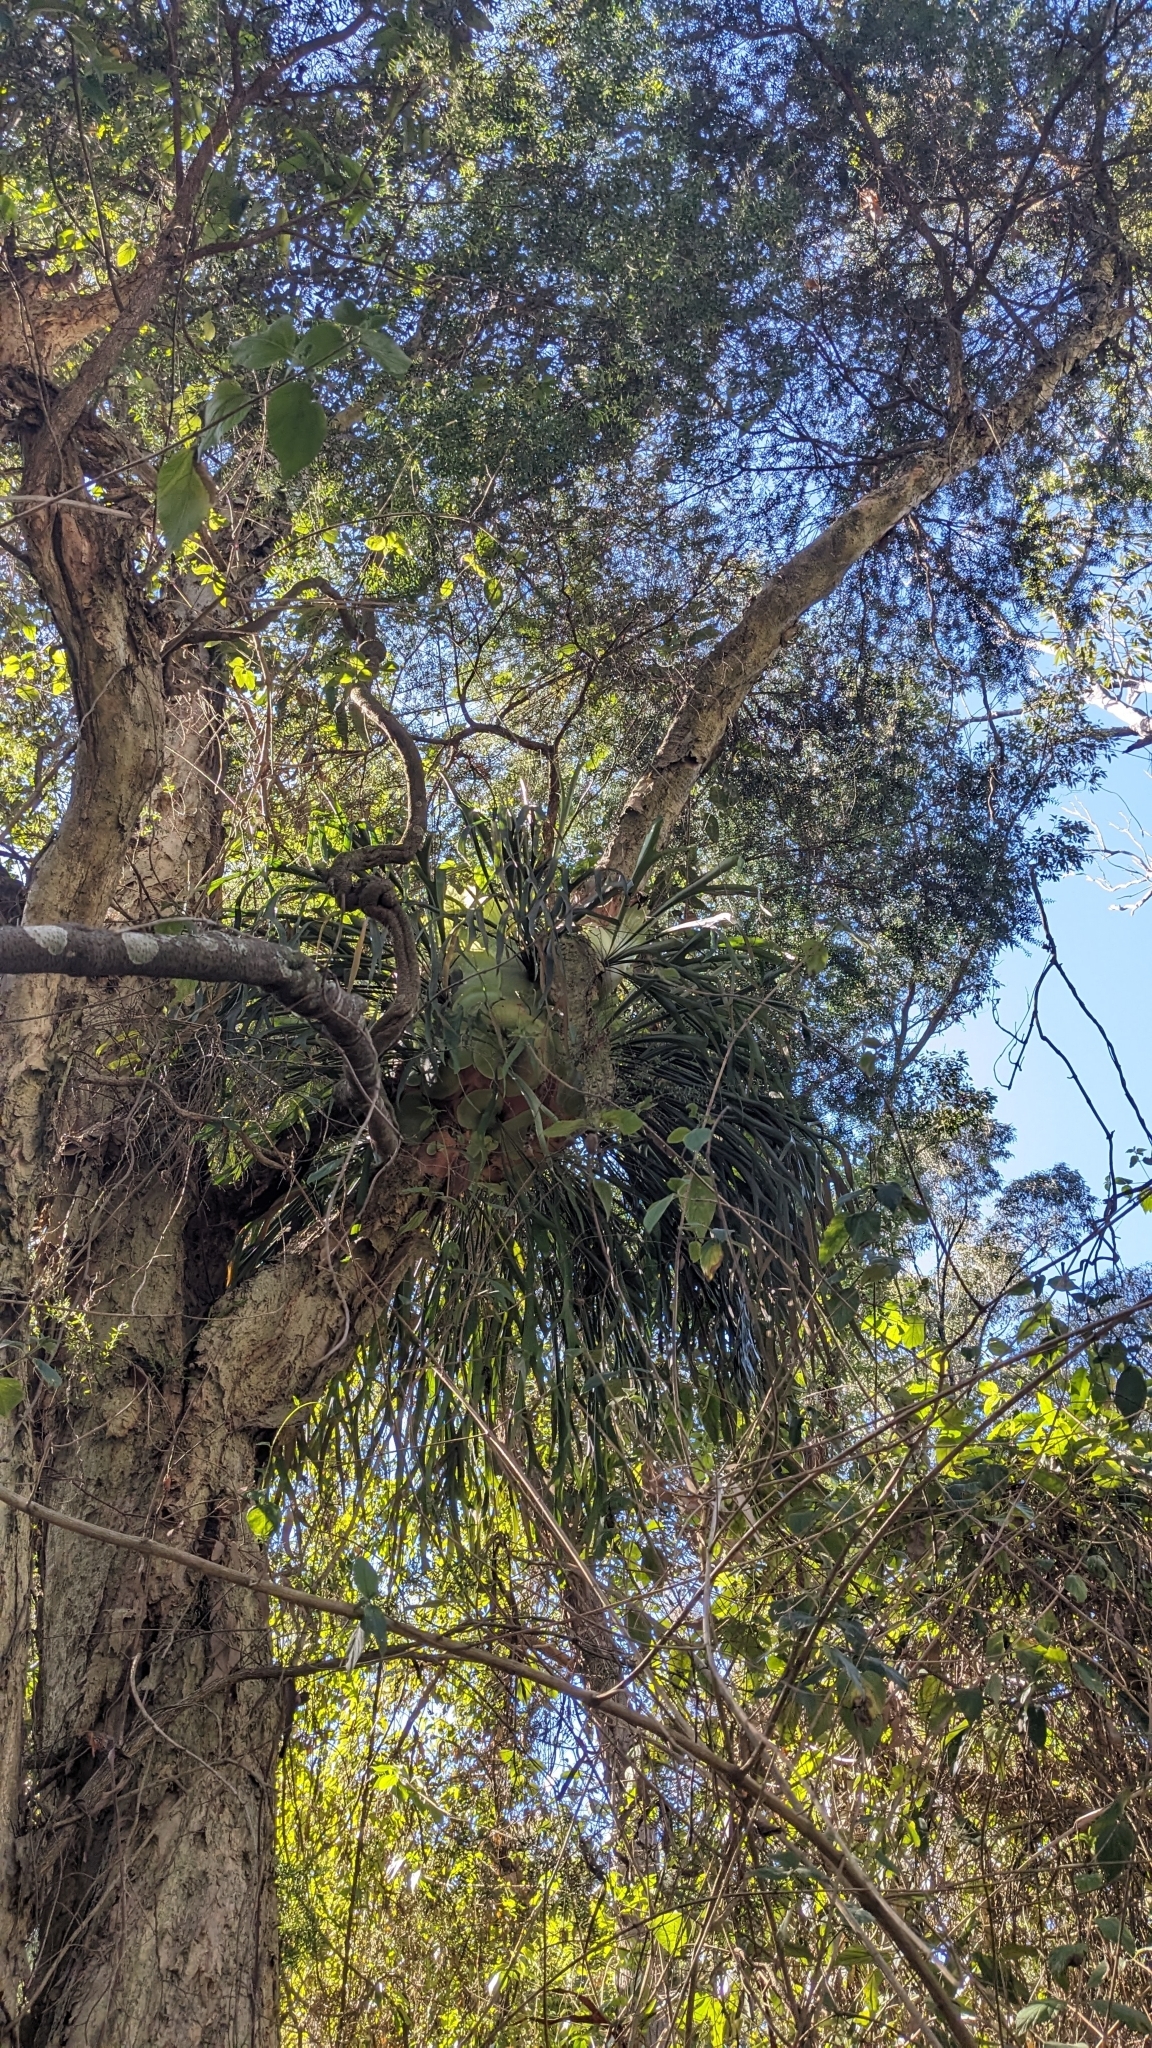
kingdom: Plantae
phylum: Tracheophyta
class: Polypodiopsida
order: Polypodiales
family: Polypodiaceae
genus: Platycerium
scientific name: Platycerium bifurcatum
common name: Elkhorn fern
